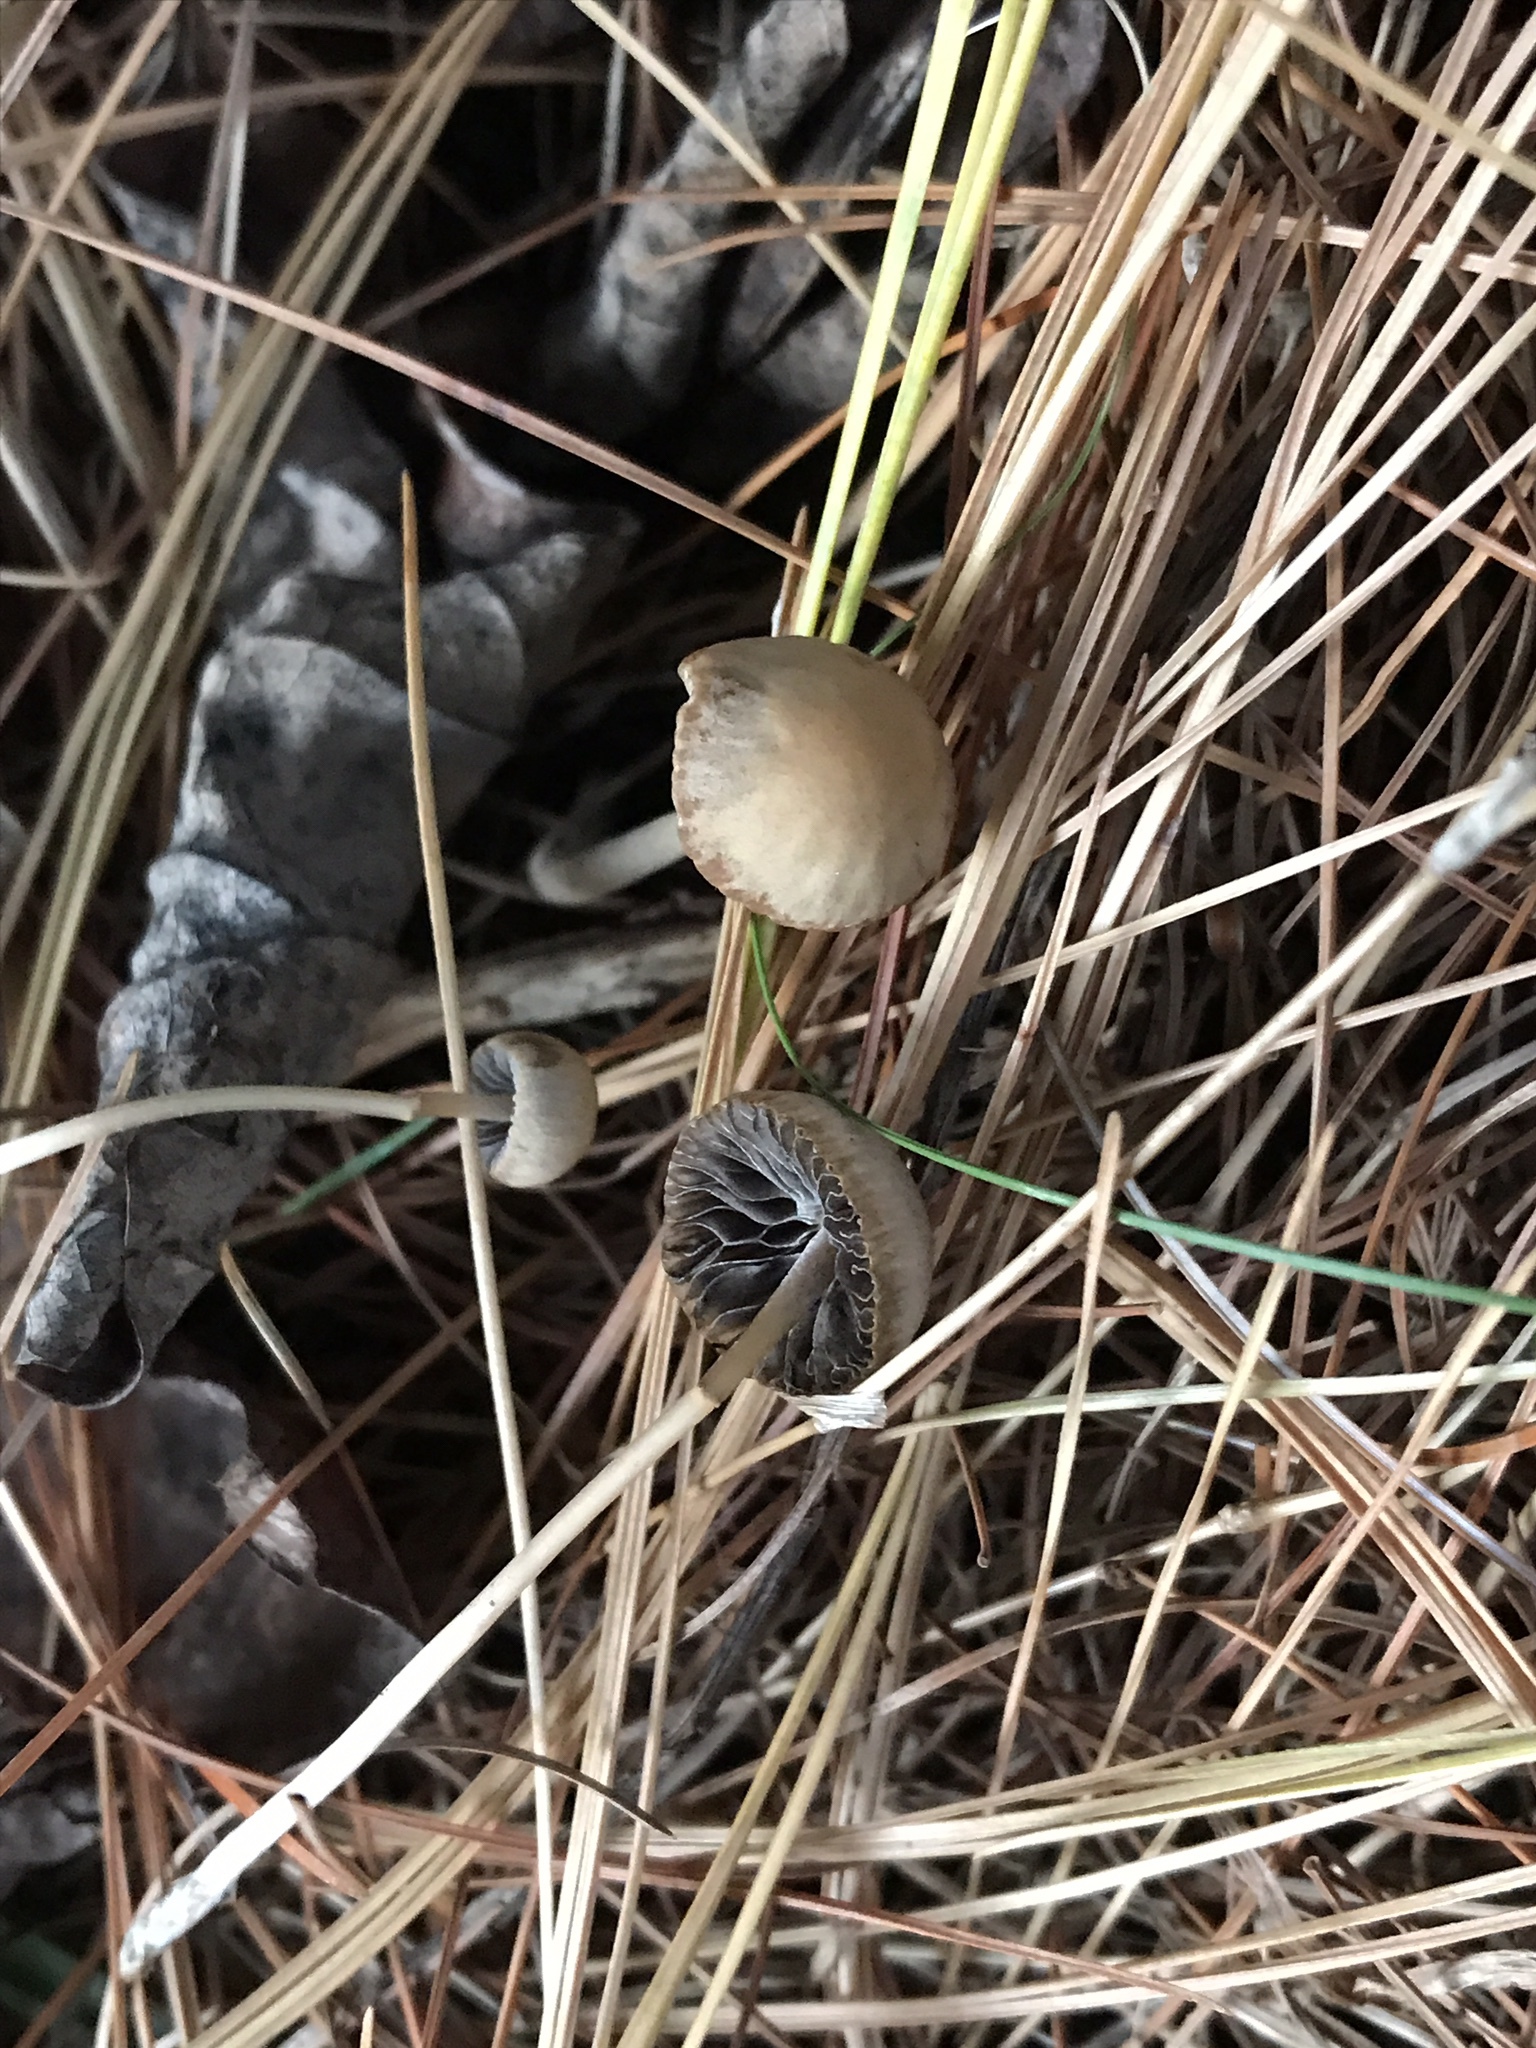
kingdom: Fungi
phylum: Basidiomycota
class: Agaricomycetes
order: Agaricales
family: Psathyrellaceae
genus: Psathyrella
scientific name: Psathyrella amarescens
